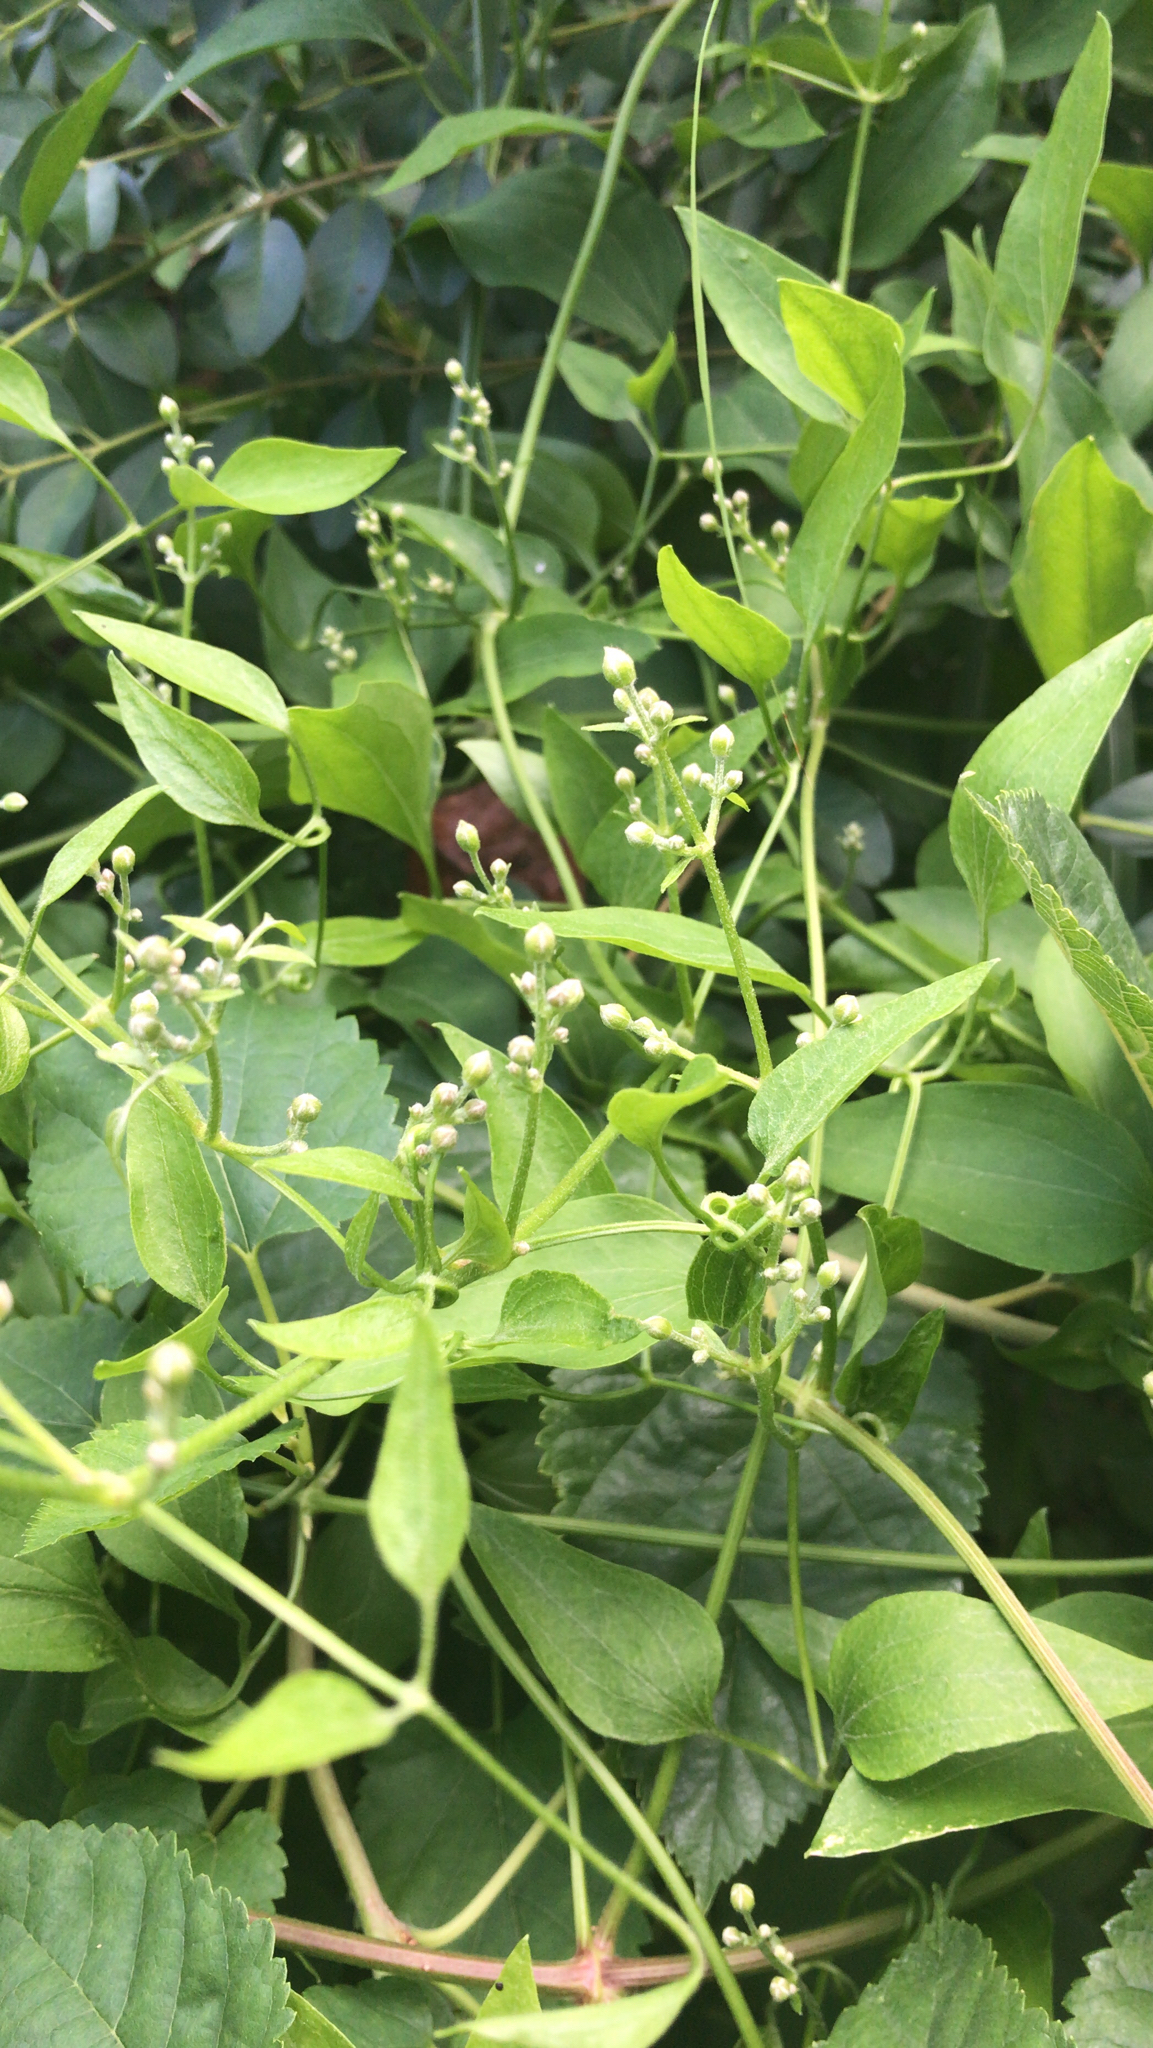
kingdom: Plantae
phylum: Tracheophyta
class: Magnoliopsida
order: Ranunculales
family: Ranunculaceae
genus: Clematis
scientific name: Clematis terniflora
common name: Sweet autumn clematis
